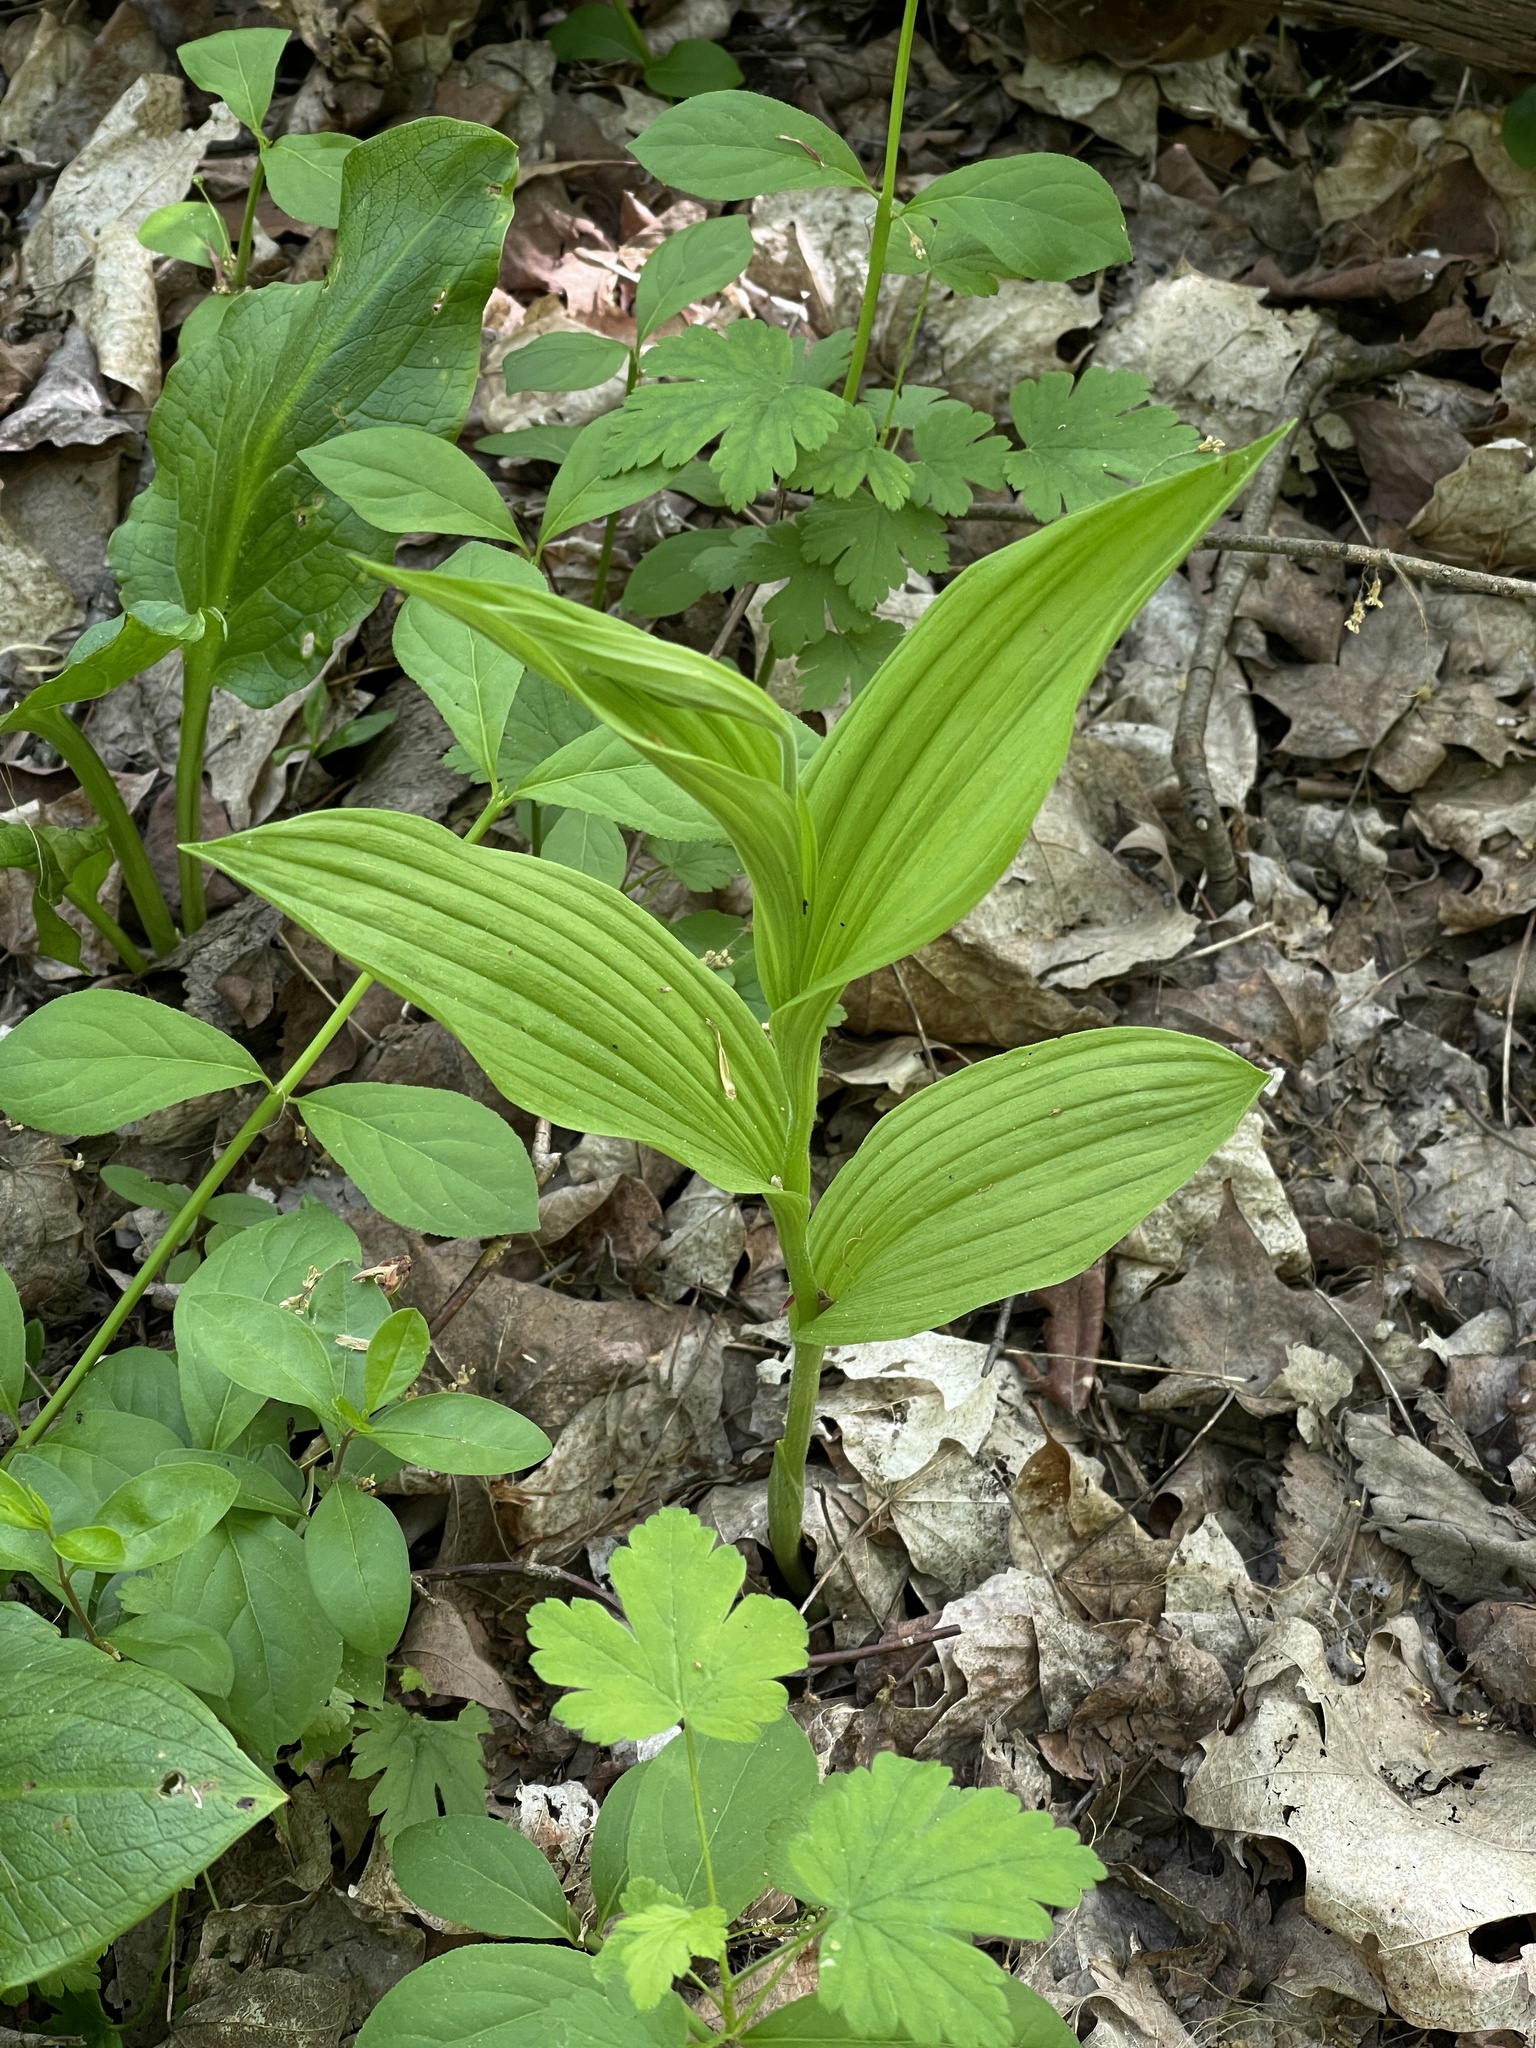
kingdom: Plantae
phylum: Tracheophyta
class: Liliopsida
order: Asparagales
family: Orchidaceae
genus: Cypripedium
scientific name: Cypripedium parviflorum
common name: American yellow lady's-slipper
